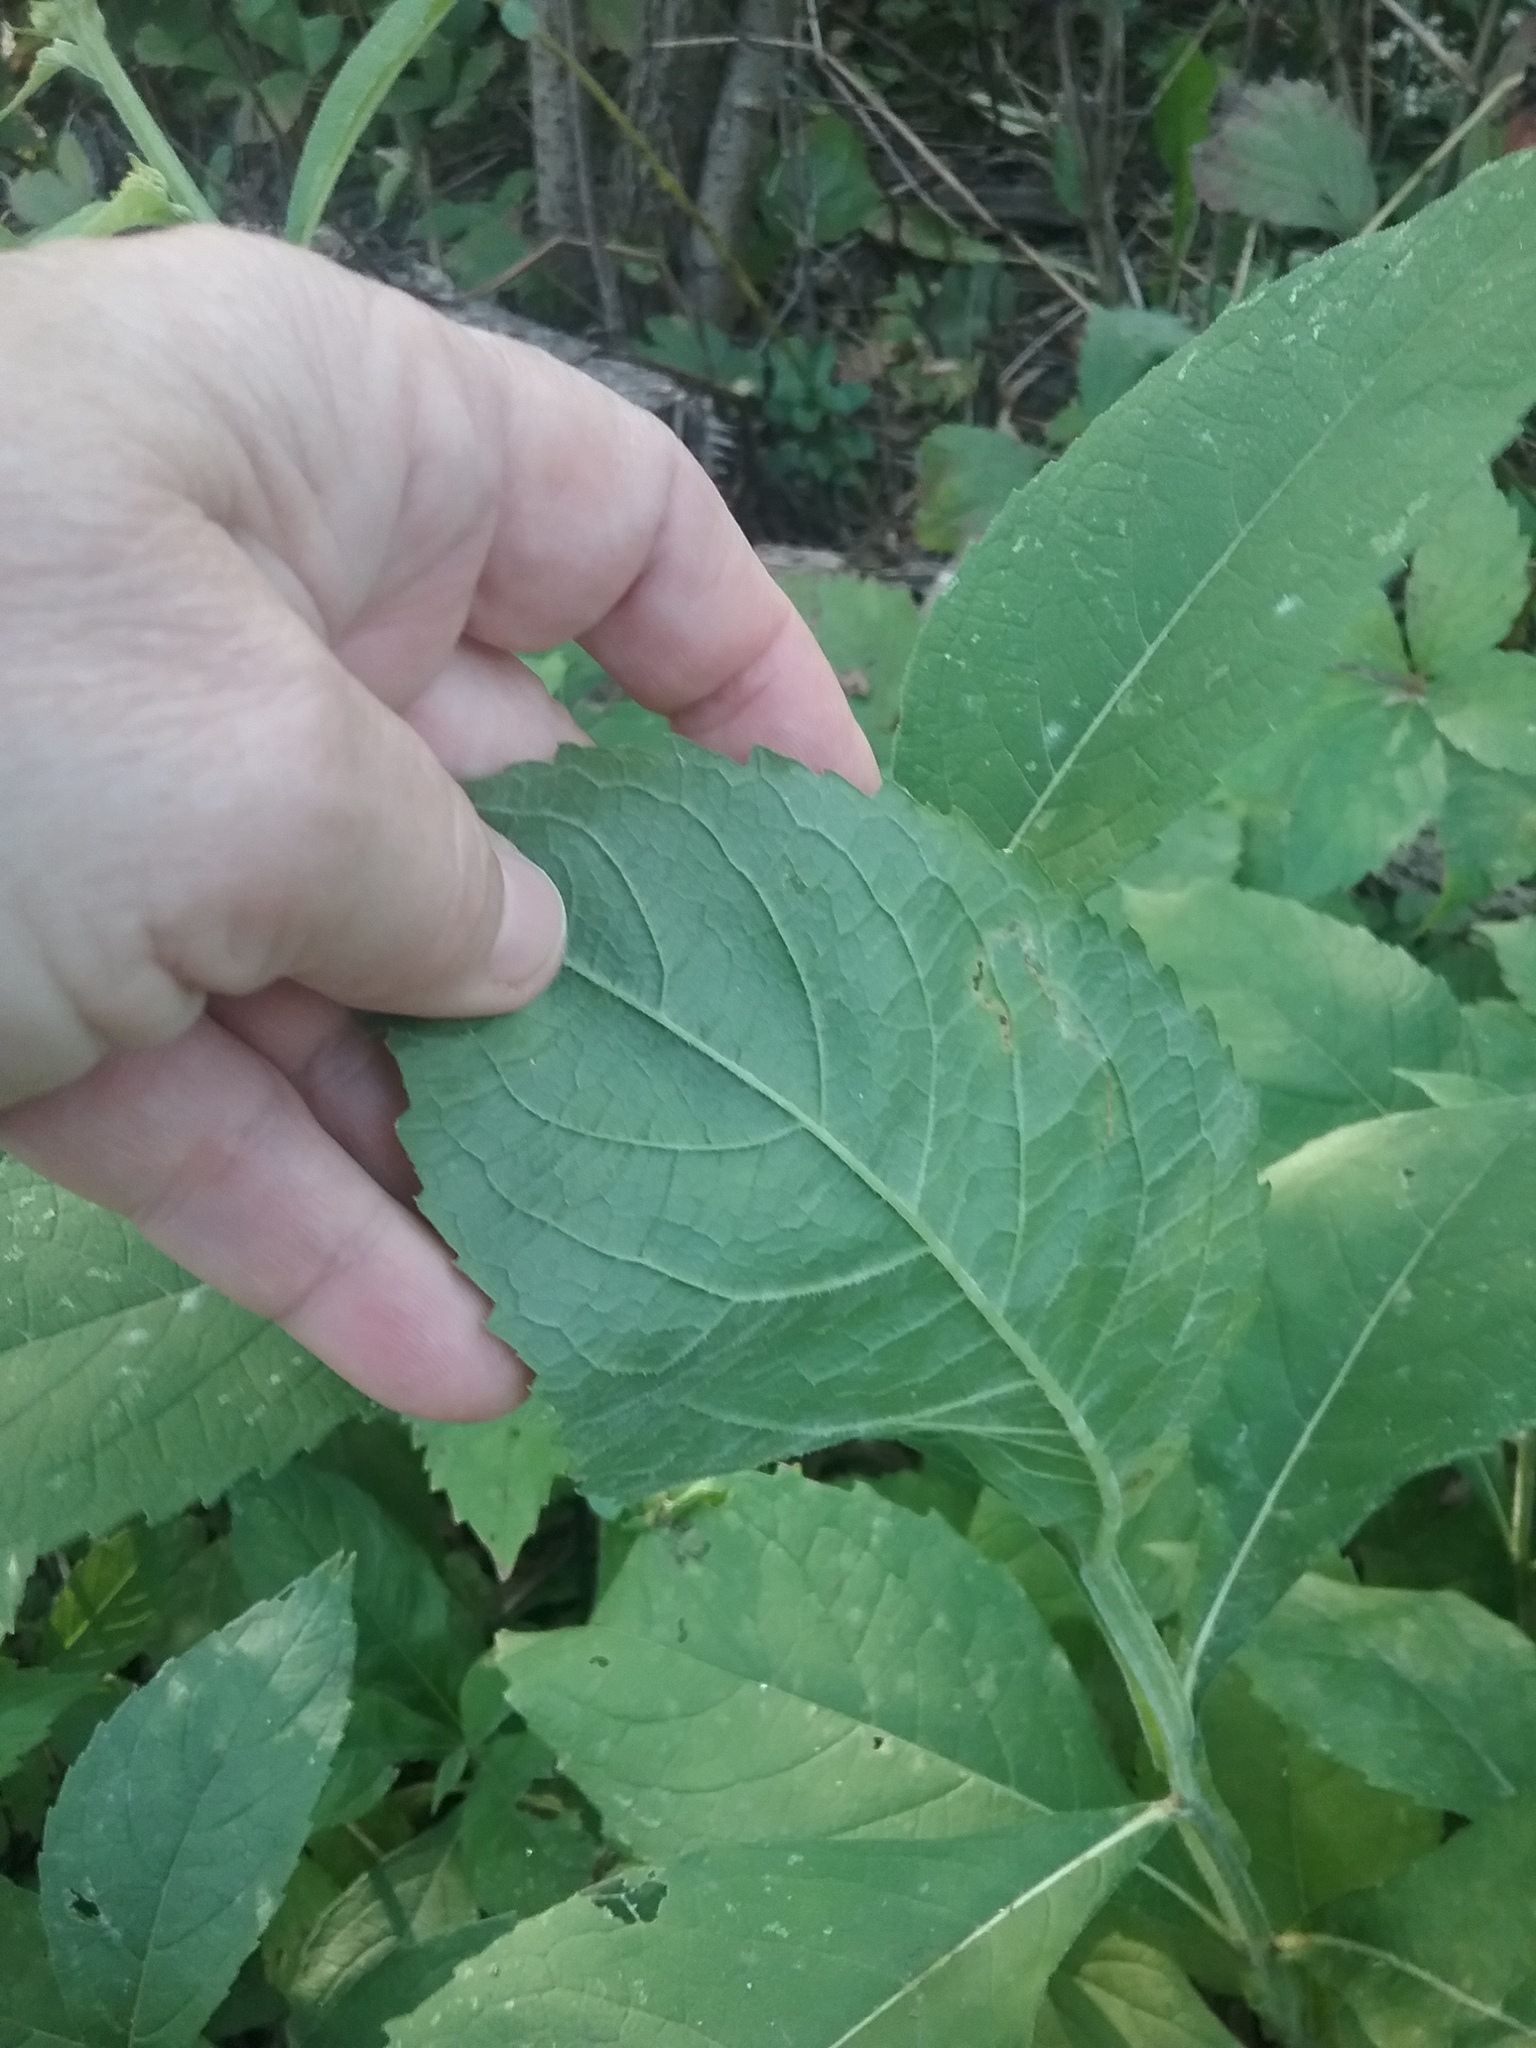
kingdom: Plantae
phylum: Tracheophyta
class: Magnoliopsida
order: Asterales
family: Asteraceae
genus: Verbesina
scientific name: Verbesina alternifolia
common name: Wingstem
